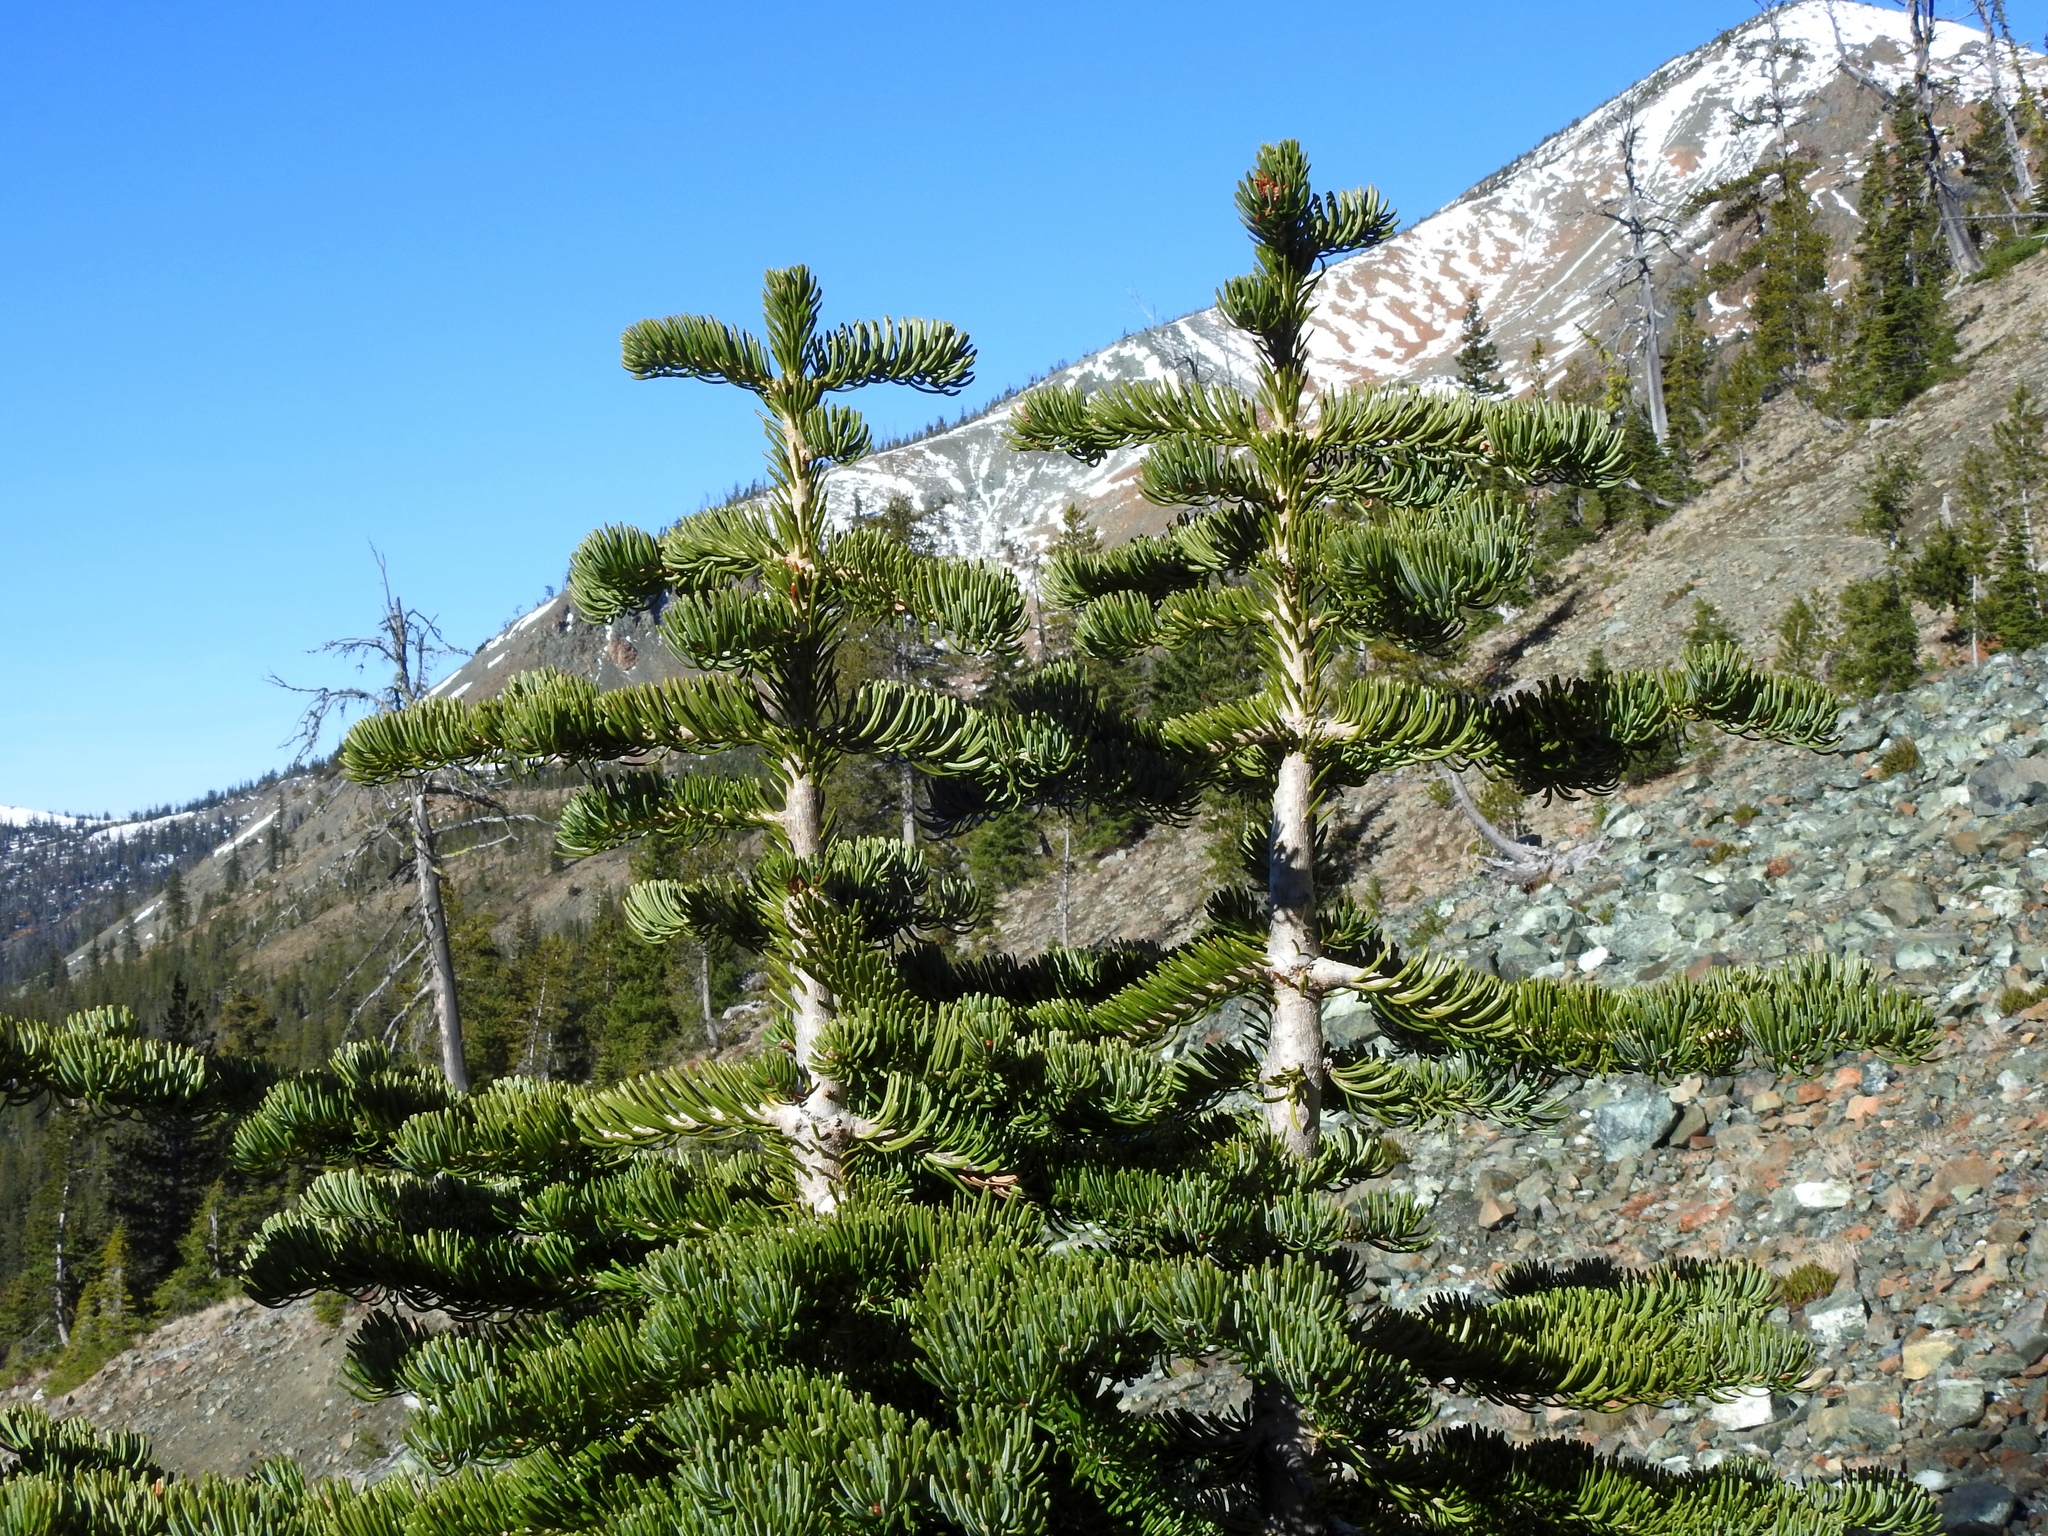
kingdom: Plantae
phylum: Tracheophyta
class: Pinopsida
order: Pinales
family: Pinaceae
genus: Abies
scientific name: Abies lasiocarpa
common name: Subalpine fir
